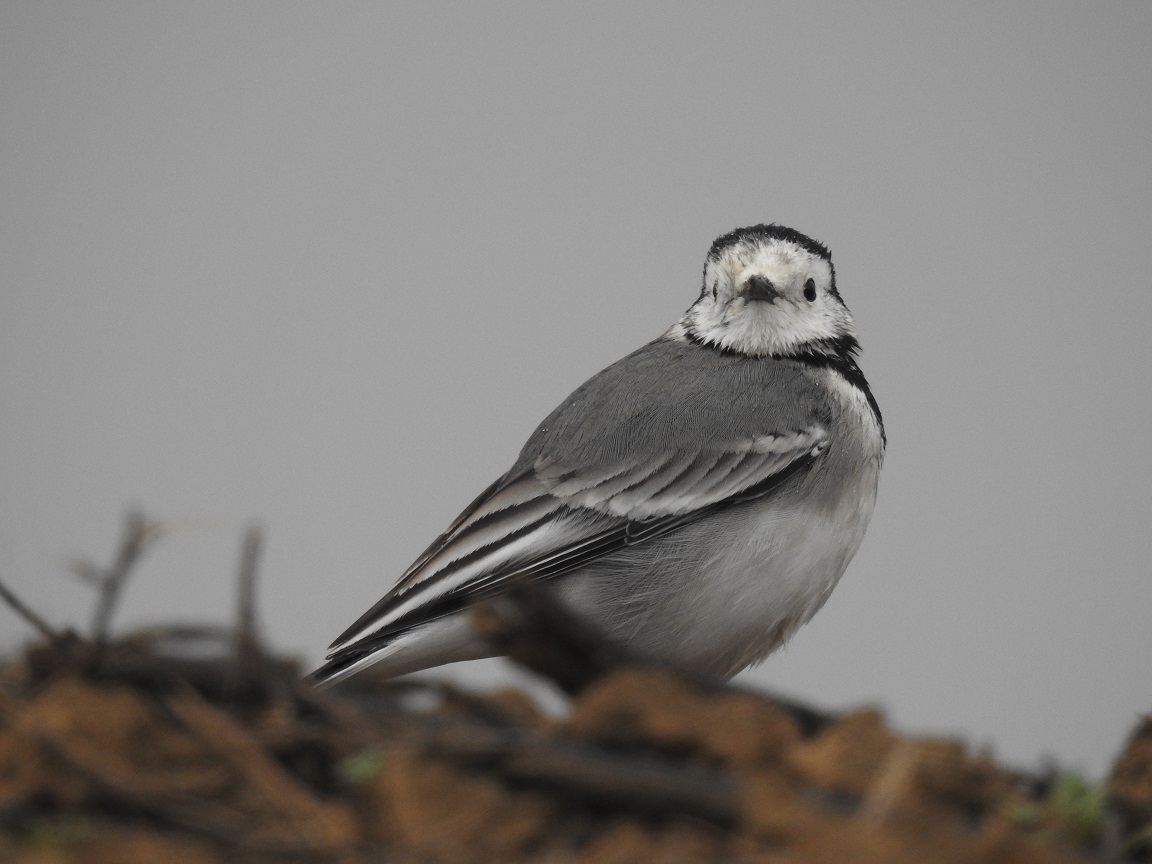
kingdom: Animalia
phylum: Chordata
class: Aves
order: Passeriformes
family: Motacillidae
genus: Motacilla
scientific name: Motacilla alba
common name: White wagtail
